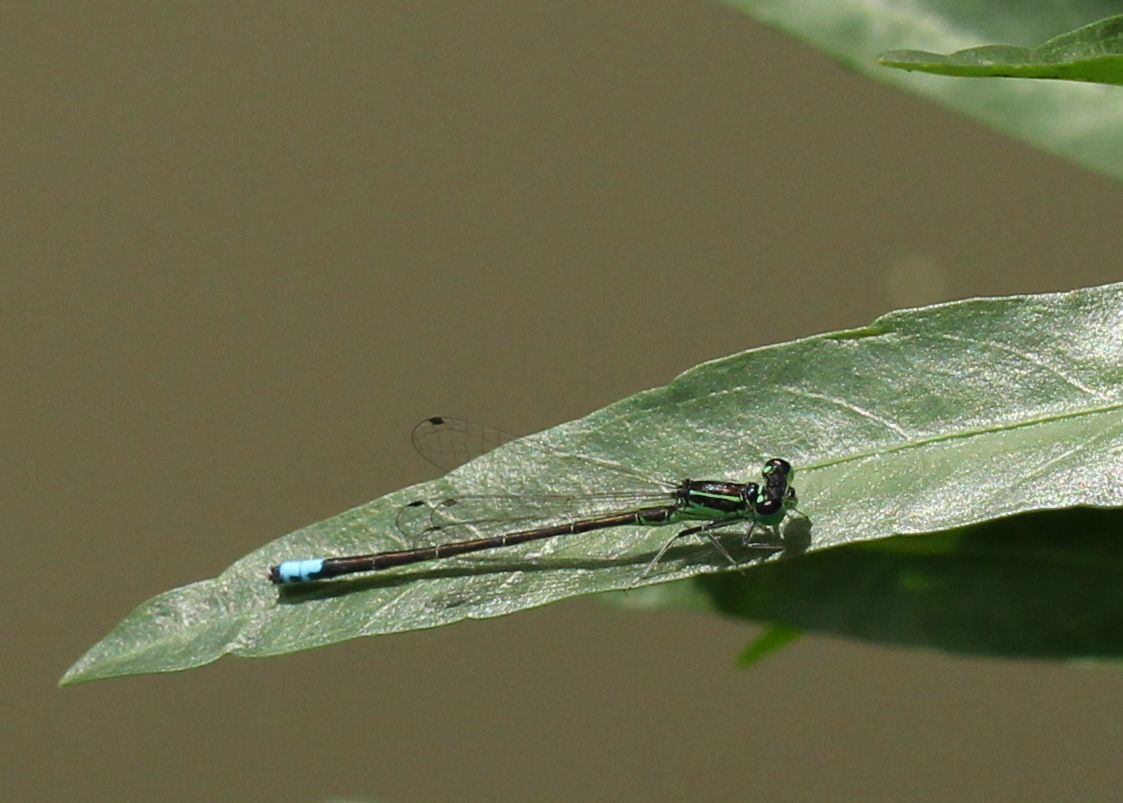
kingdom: Animalia
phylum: Arthropoda
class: Insecta
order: Odonata
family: Coenagrionidae
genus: Ischnura
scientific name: Ischnura verticalis
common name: Eastern forktail
